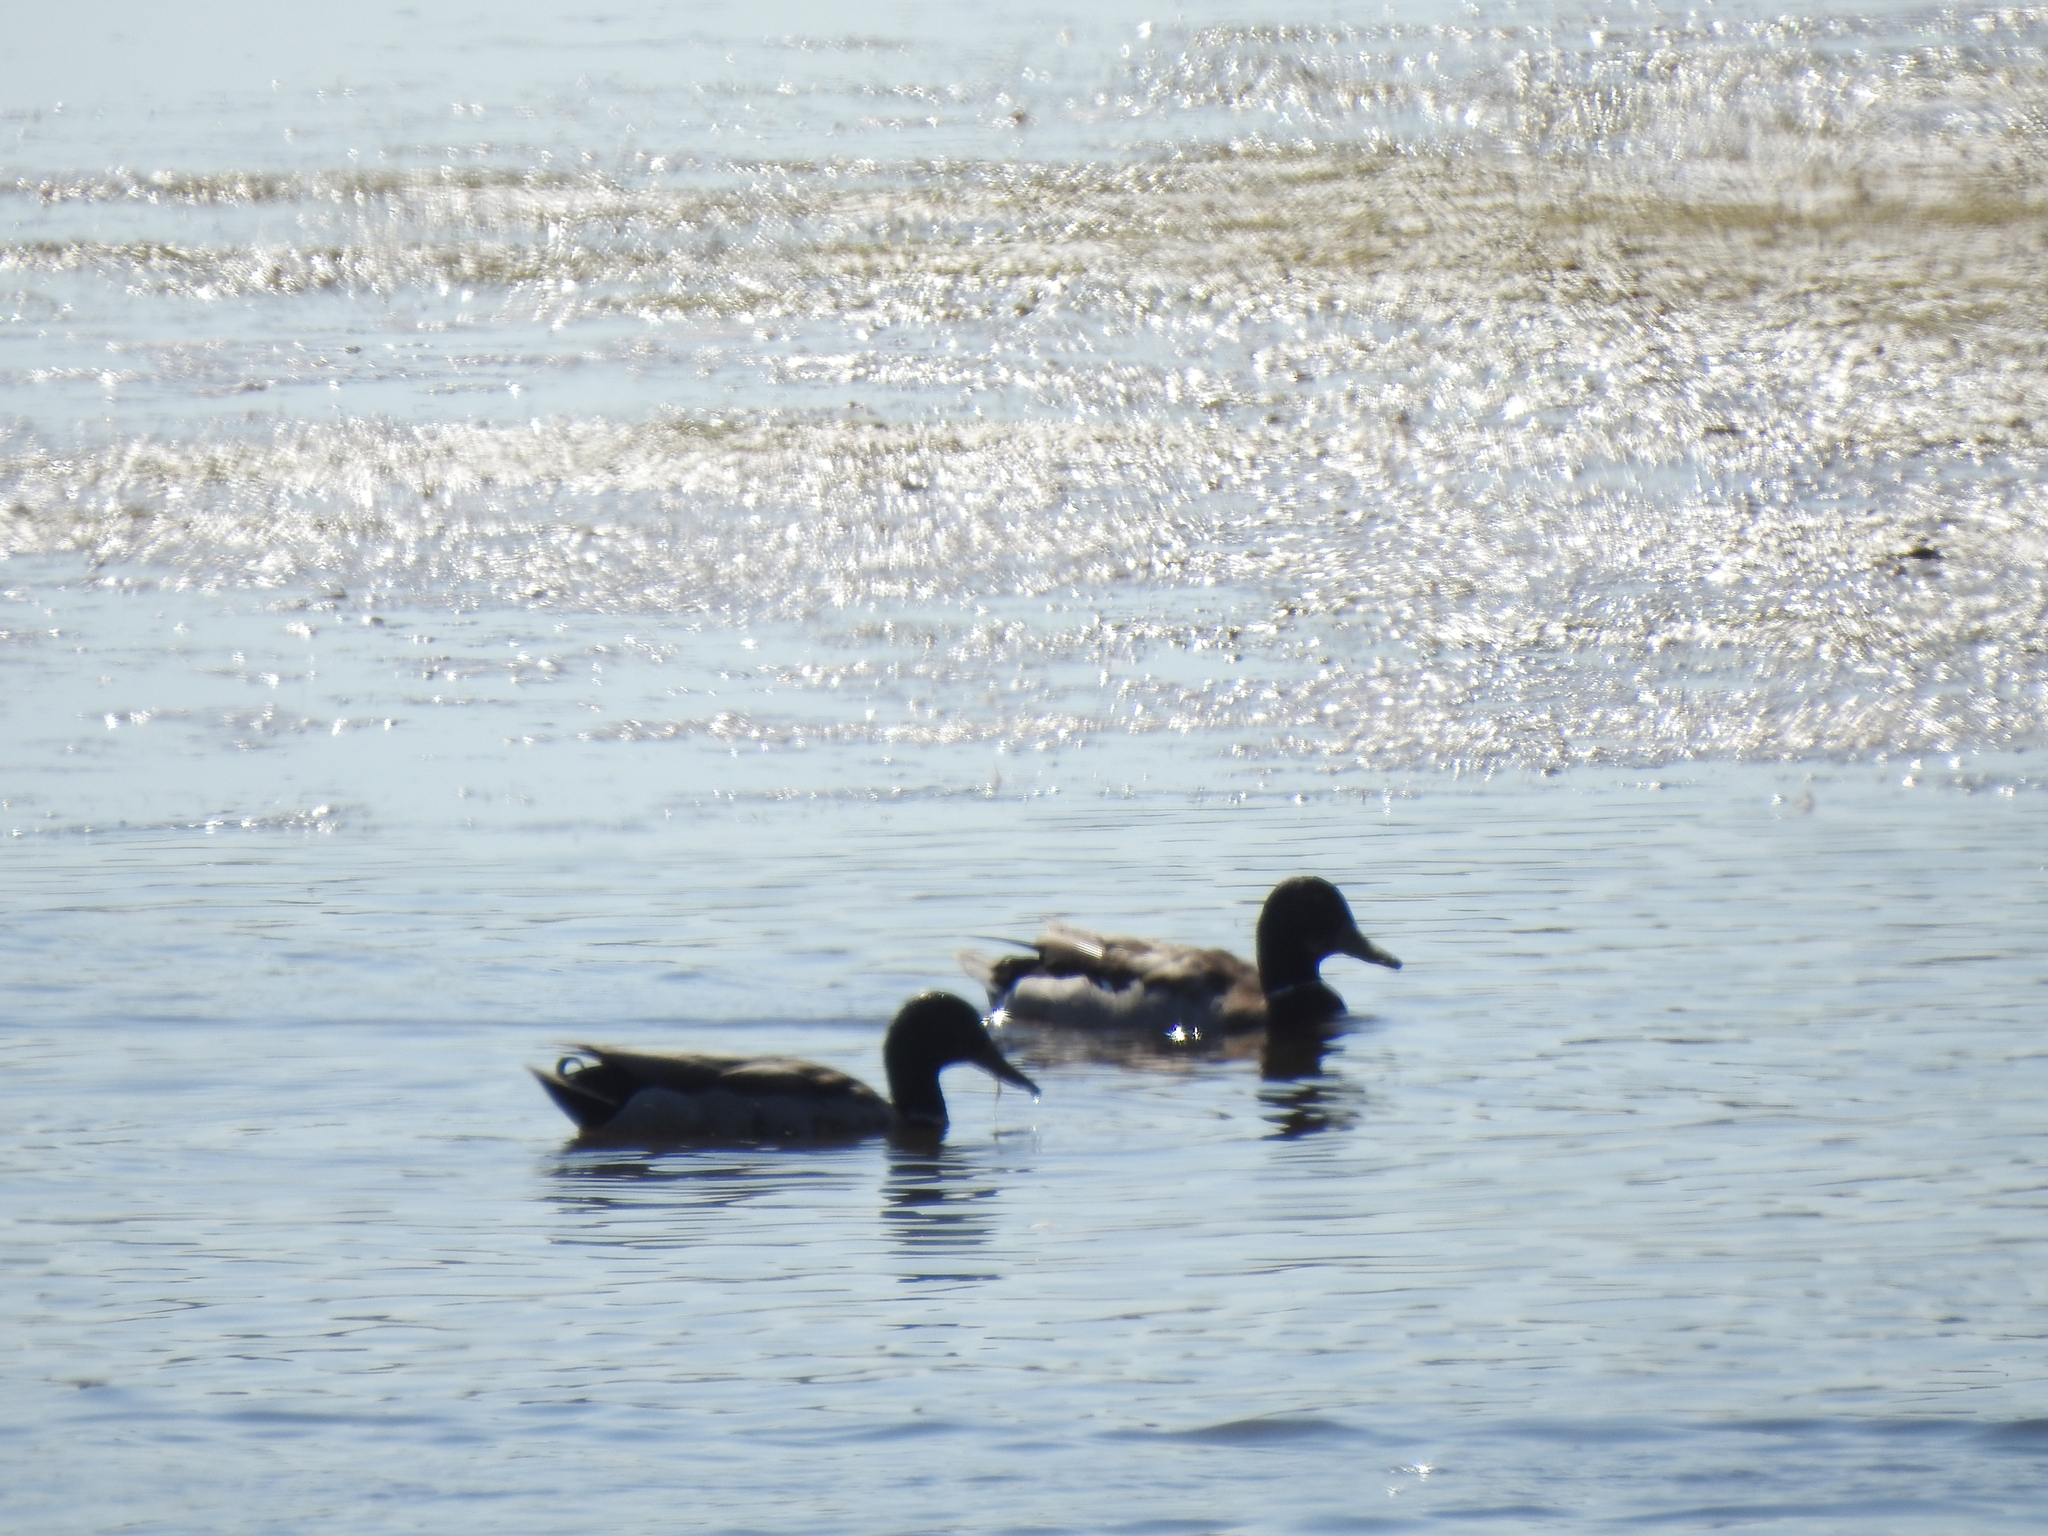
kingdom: Animalia
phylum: Chordata
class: Aves
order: Anseriformes
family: Anatidae
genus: Anas
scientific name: Anas platyrhynchos
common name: Mallard
